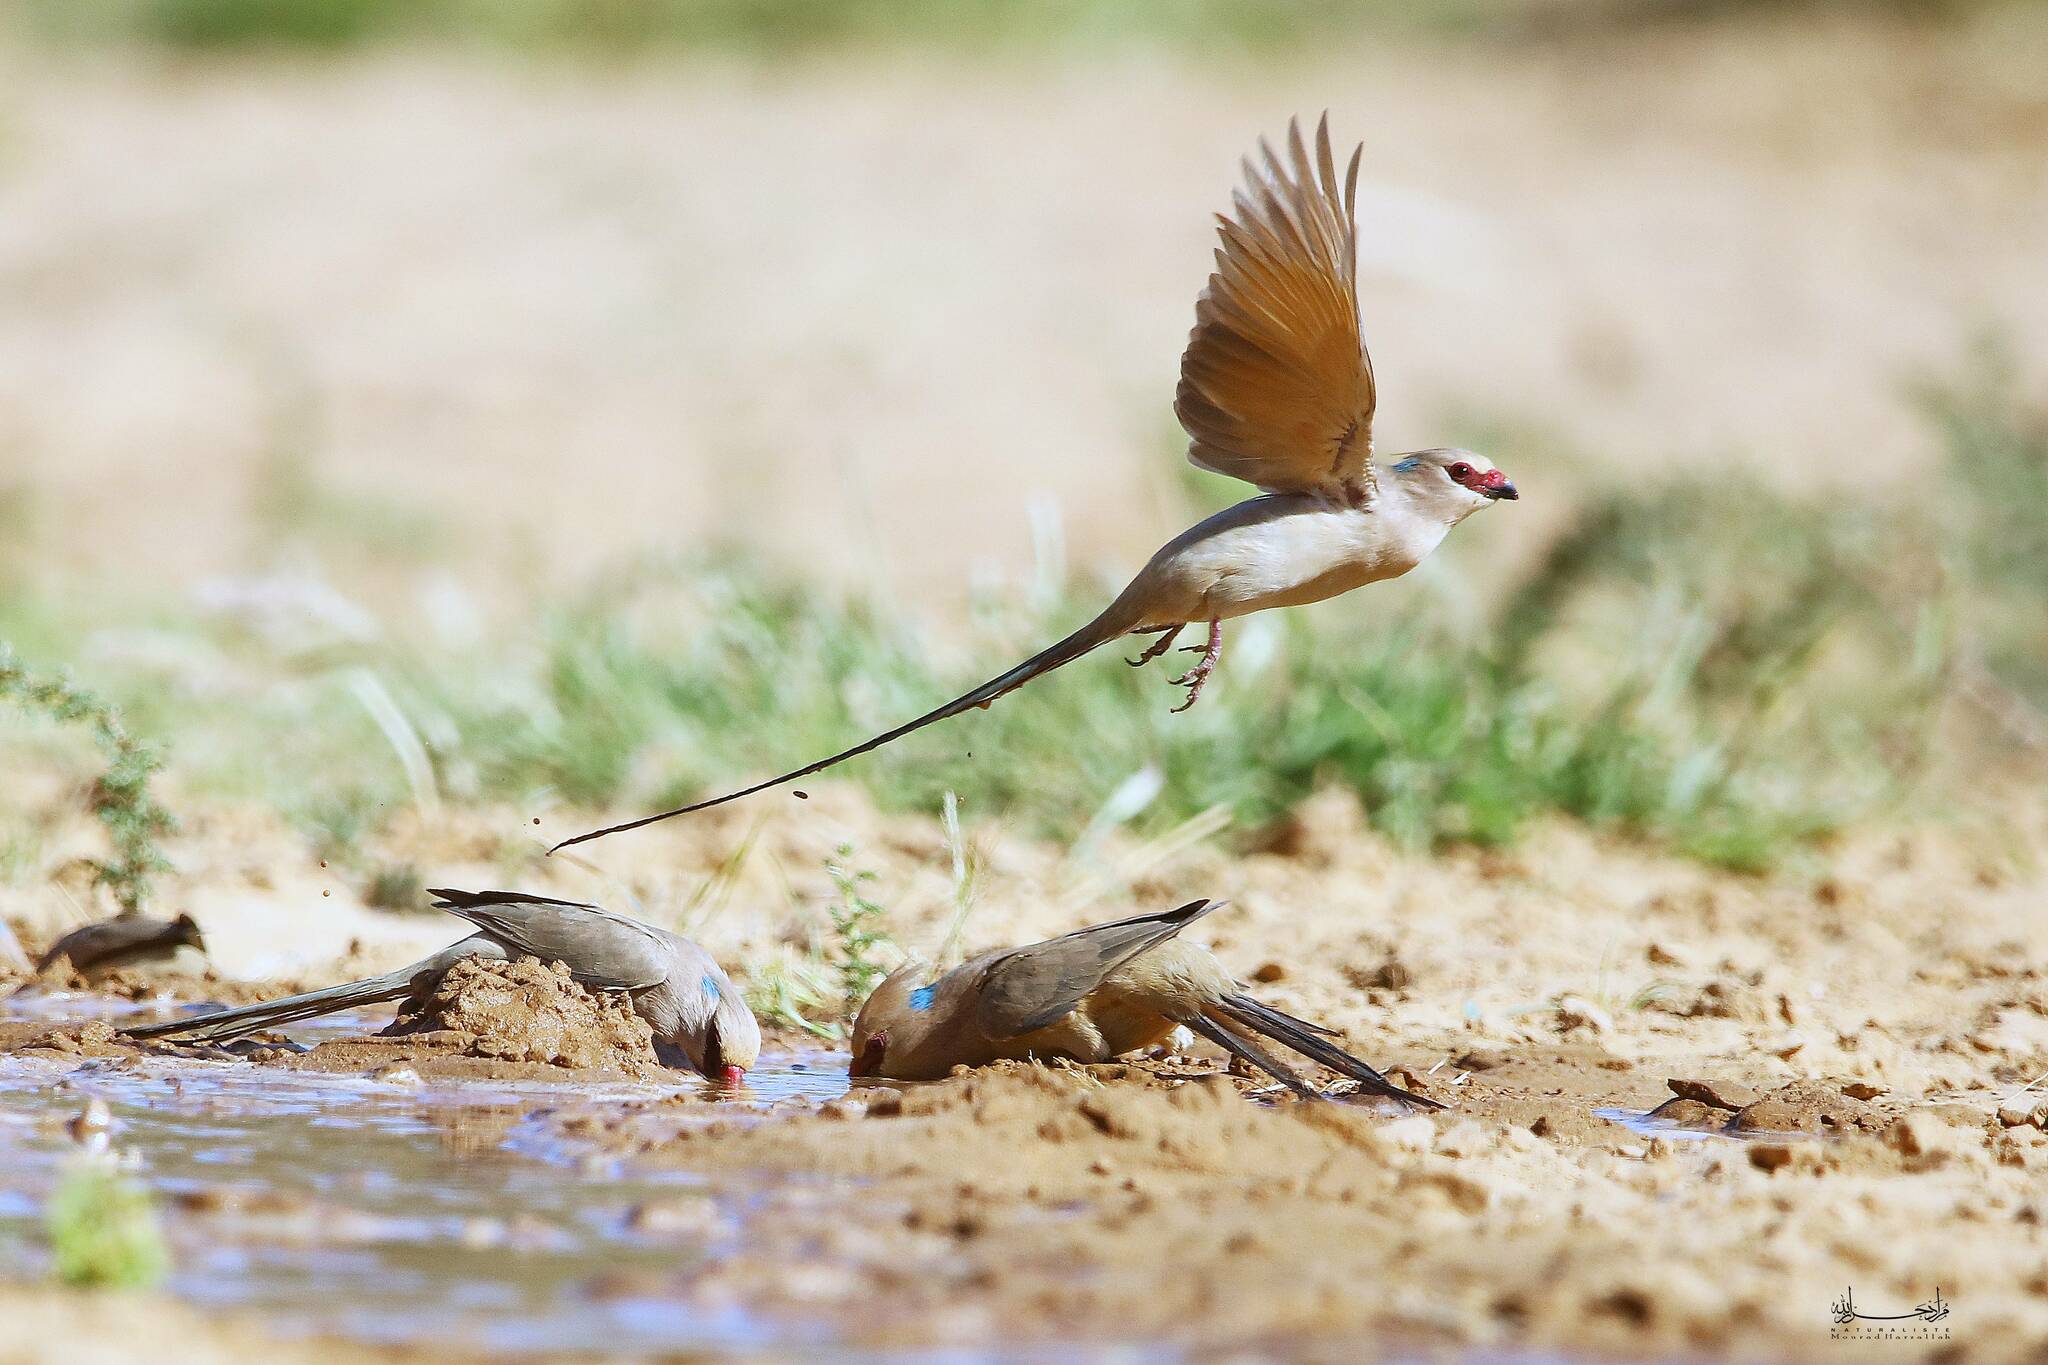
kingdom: Animalia
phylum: Chordata
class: Aves
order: Coliiformes
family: Coliidae
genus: Urocolius
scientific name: Urocolius macrourus
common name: Blue-naped mousebird
